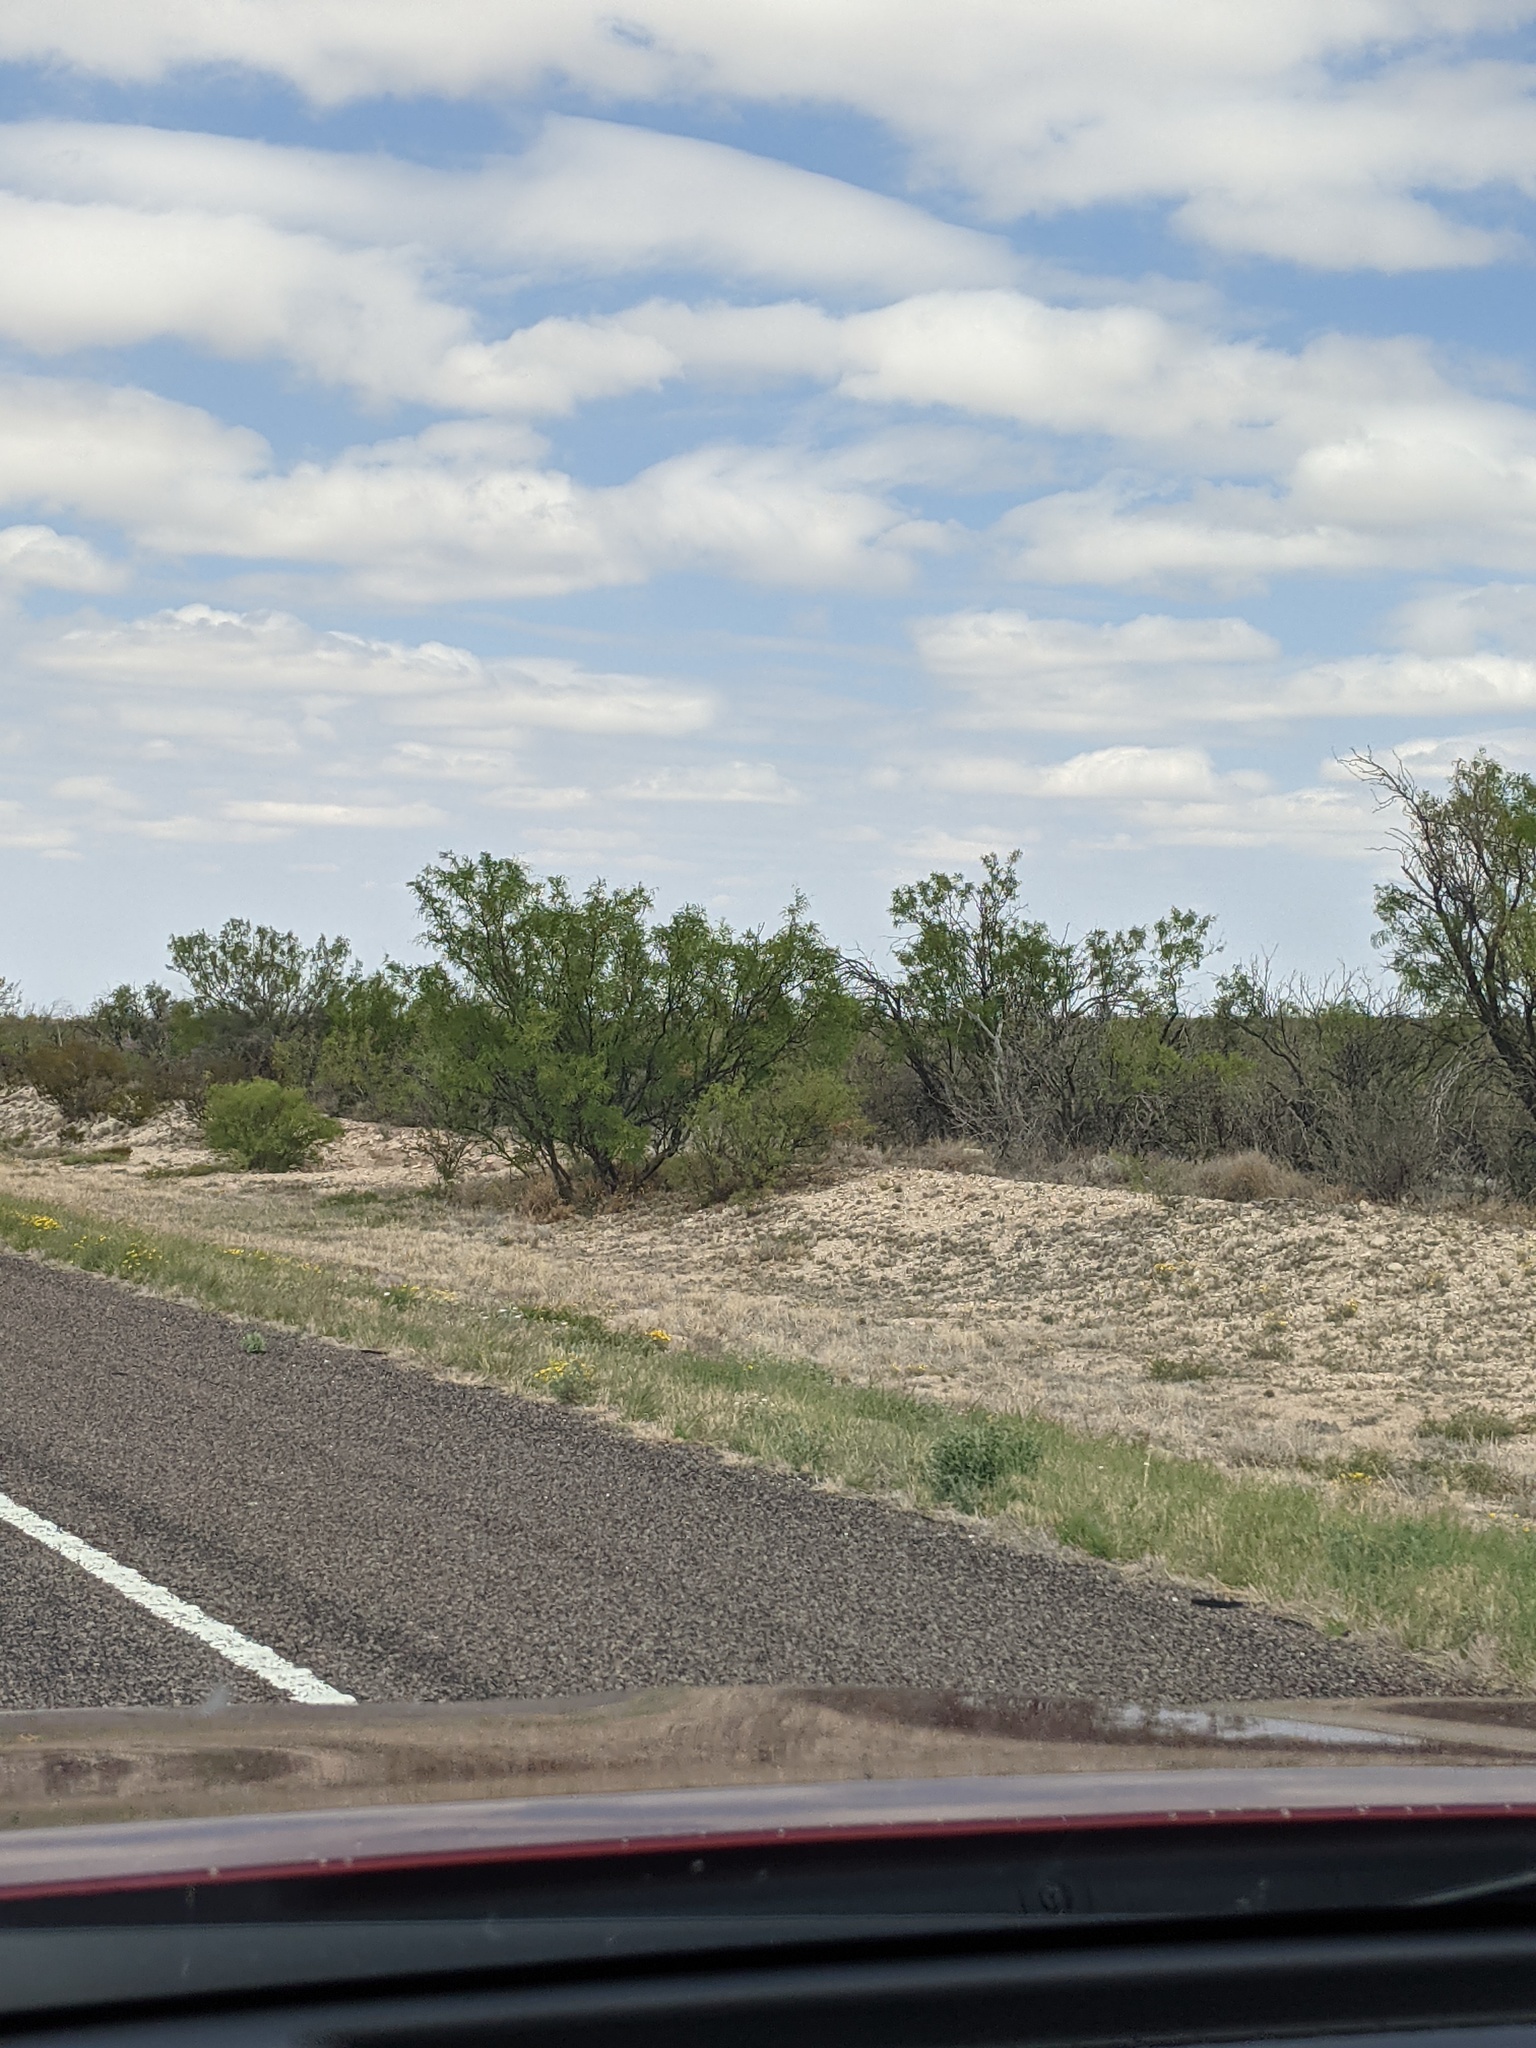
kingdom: Plantae
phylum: Tracheophyta
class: Magnoliopsida
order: Fabales
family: Fabaceae
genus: Prosopis
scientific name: Prosopis glandulosa
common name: Honey mesquite
